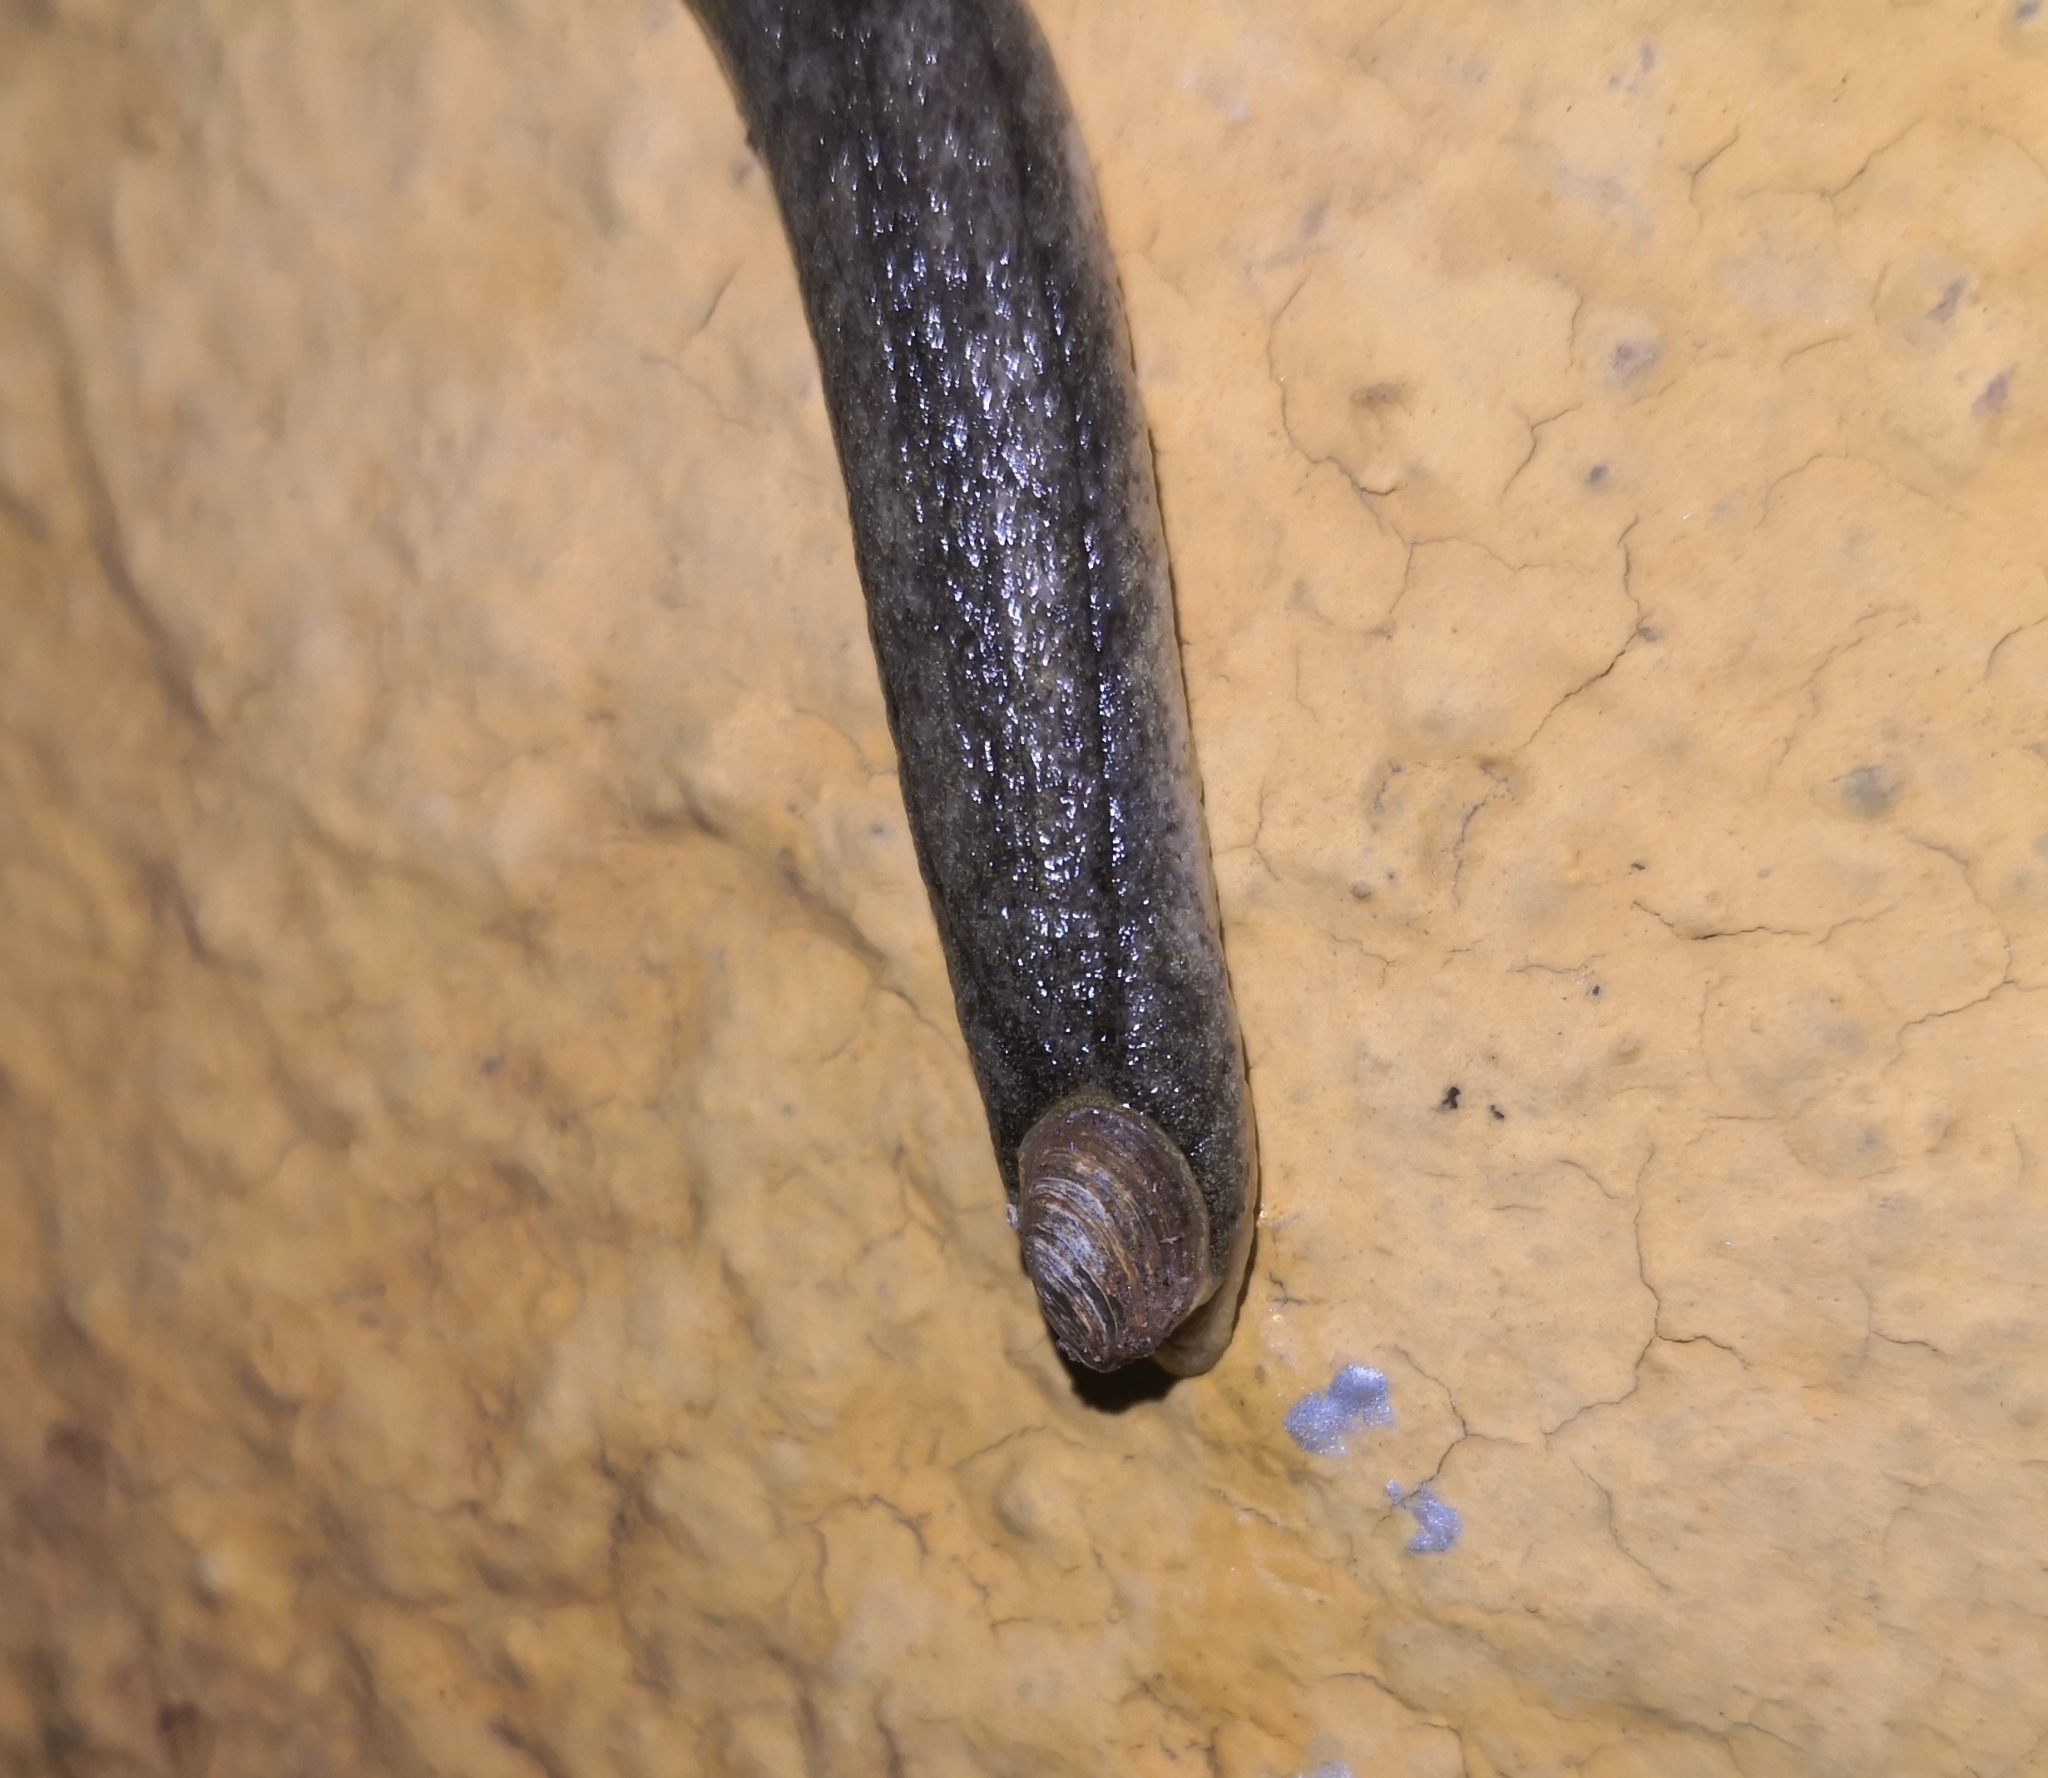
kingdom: Animalia
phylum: Mollusca
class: Gastropoda
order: Stylommatophora
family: Testacellidae
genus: Testacella
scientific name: Testacella haliotidea
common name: Shelled slug
